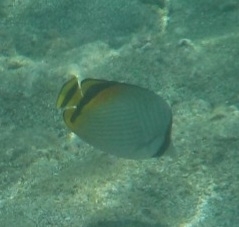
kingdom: Animalia
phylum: Chordata
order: Perciformes
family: Chaetodontidae
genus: Chaetodon
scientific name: Chaetodon vagabundus
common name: Vagabond butterflyfish
